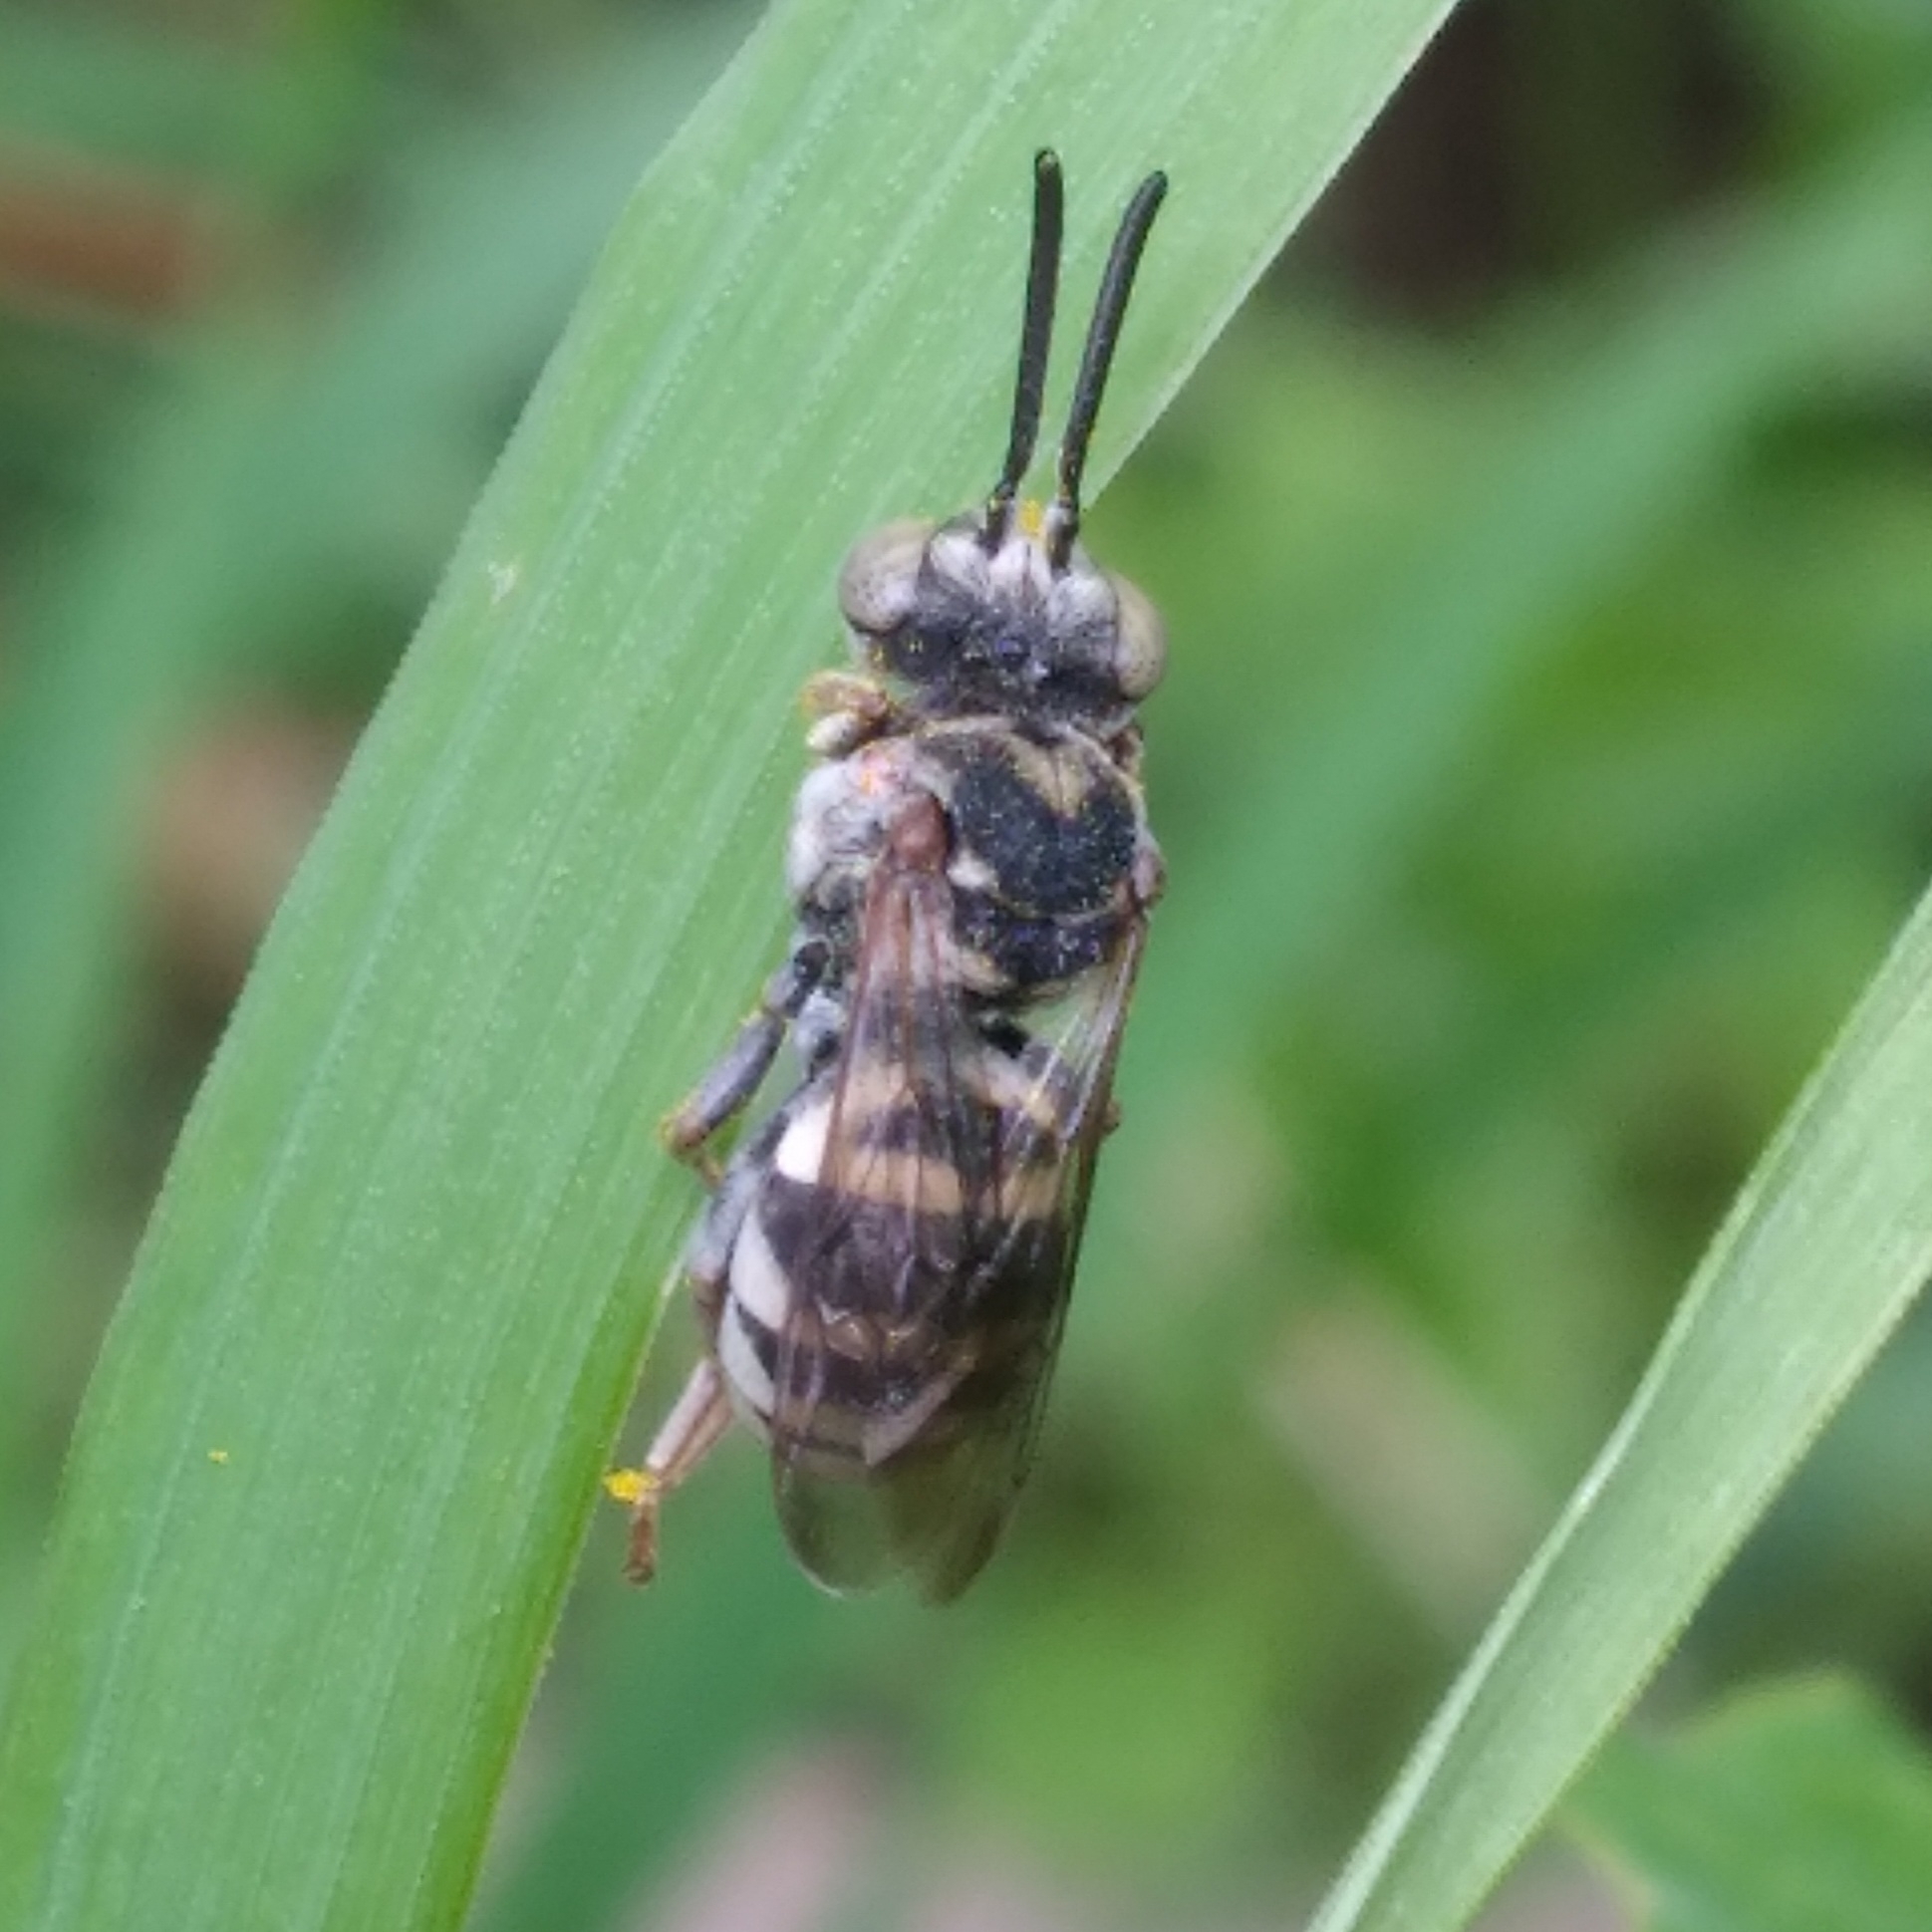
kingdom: Animalia
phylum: Arthropoda
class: Insecta
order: Hymenoptera
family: Apidae
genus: Epeolus
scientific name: Epeolus compactus
